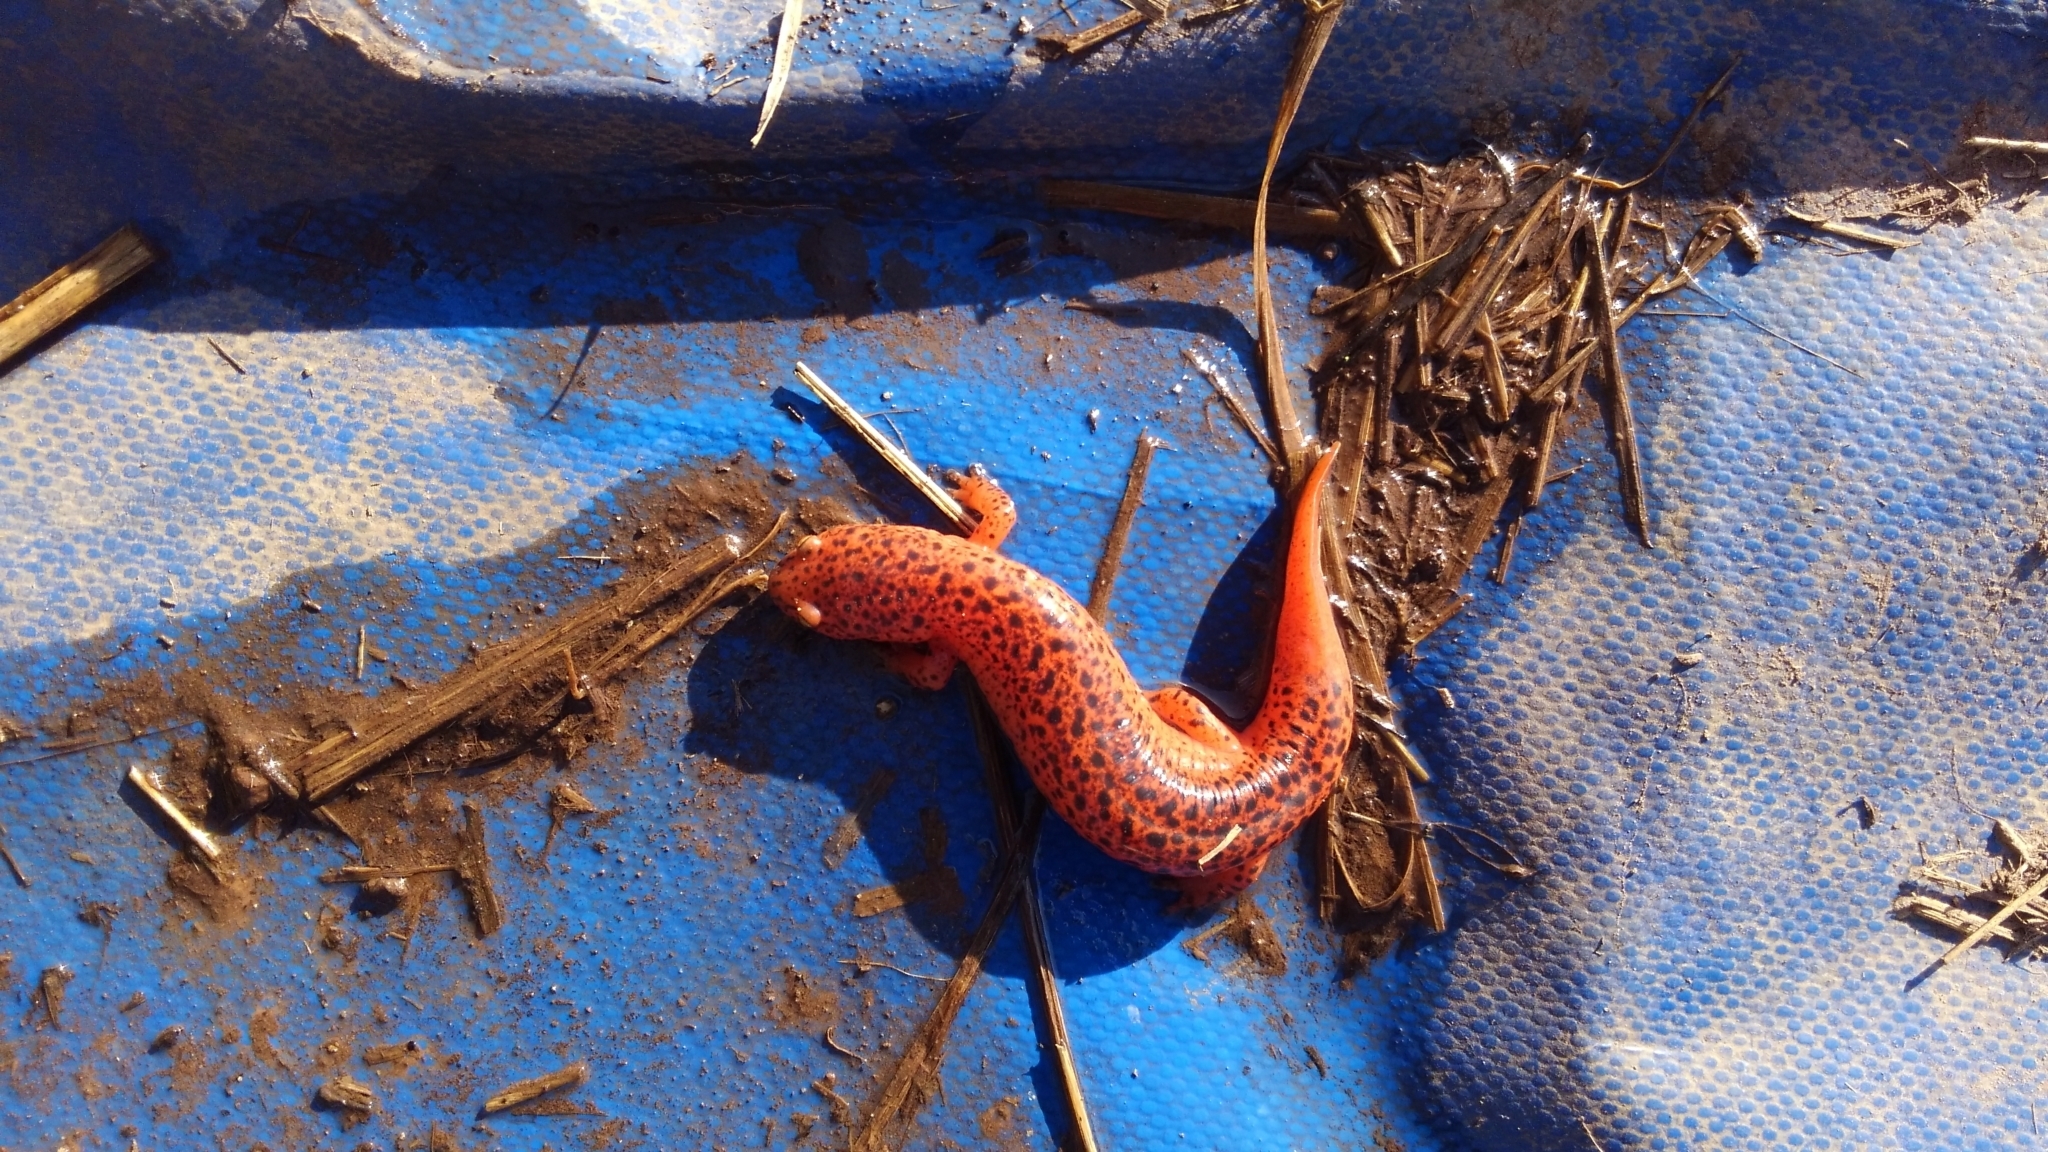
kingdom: Animalia
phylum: Chordata
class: Amphibia
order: Caudata
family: Plethodontidae
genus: Pseudotriton
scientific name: Pseudotriton ruber
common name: Red salamander
